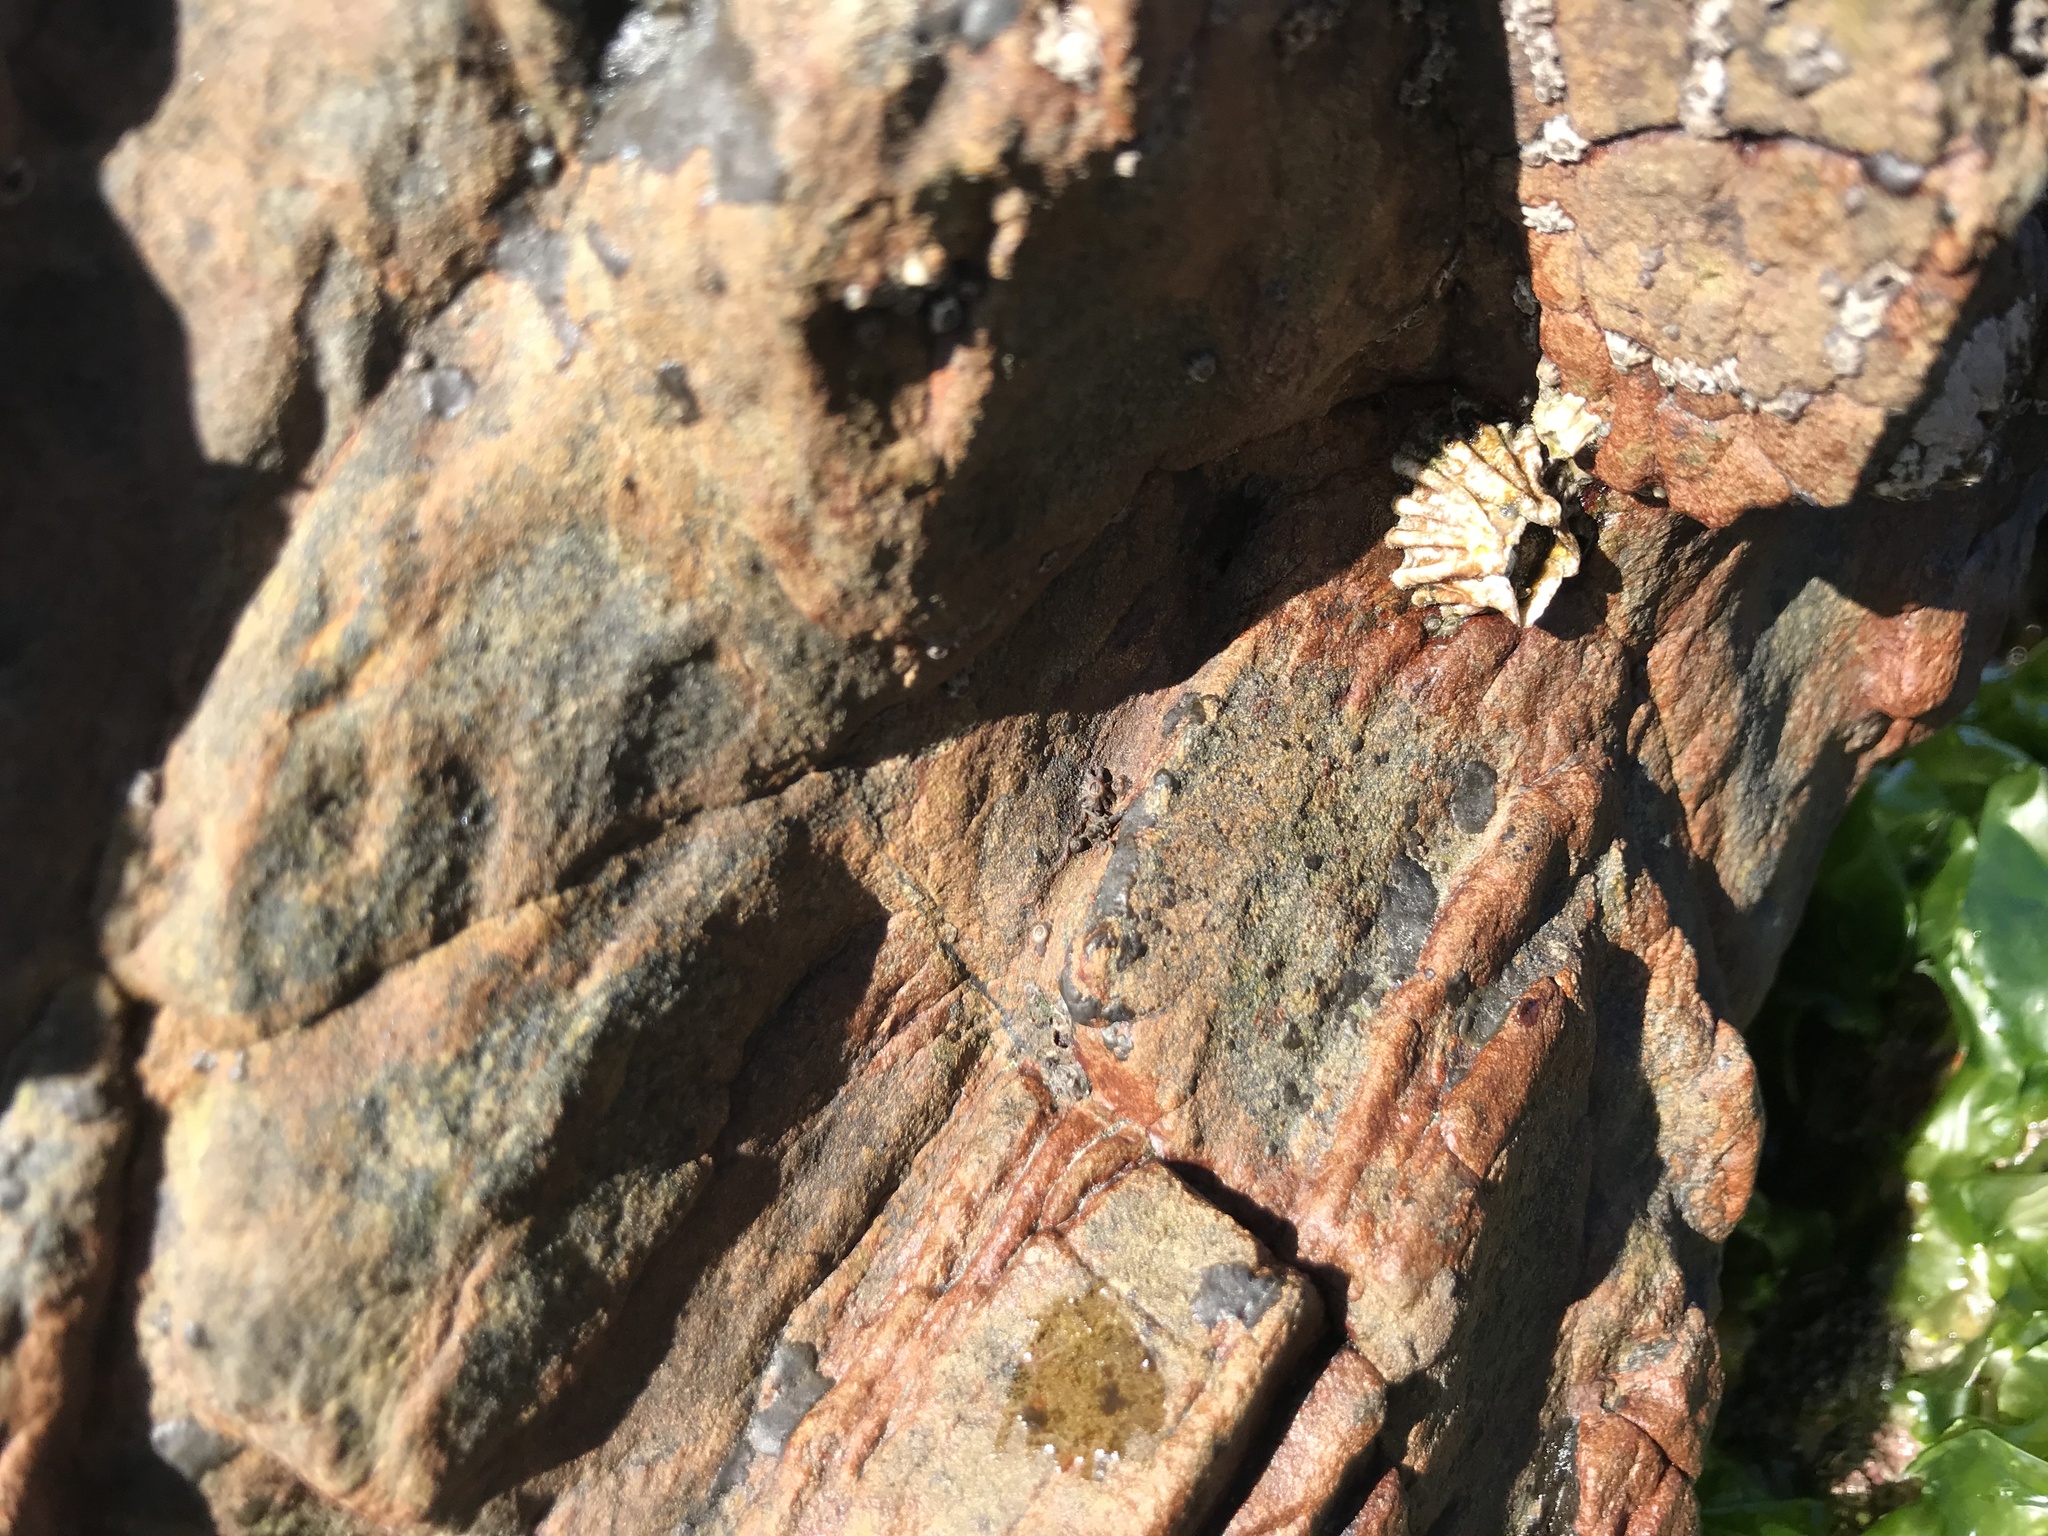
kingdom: Animalia
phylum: Arthropoda
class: Maxillopoda
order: Sessilia
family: Tetraclitidae
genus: Epopella
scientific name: Epopella plicata
